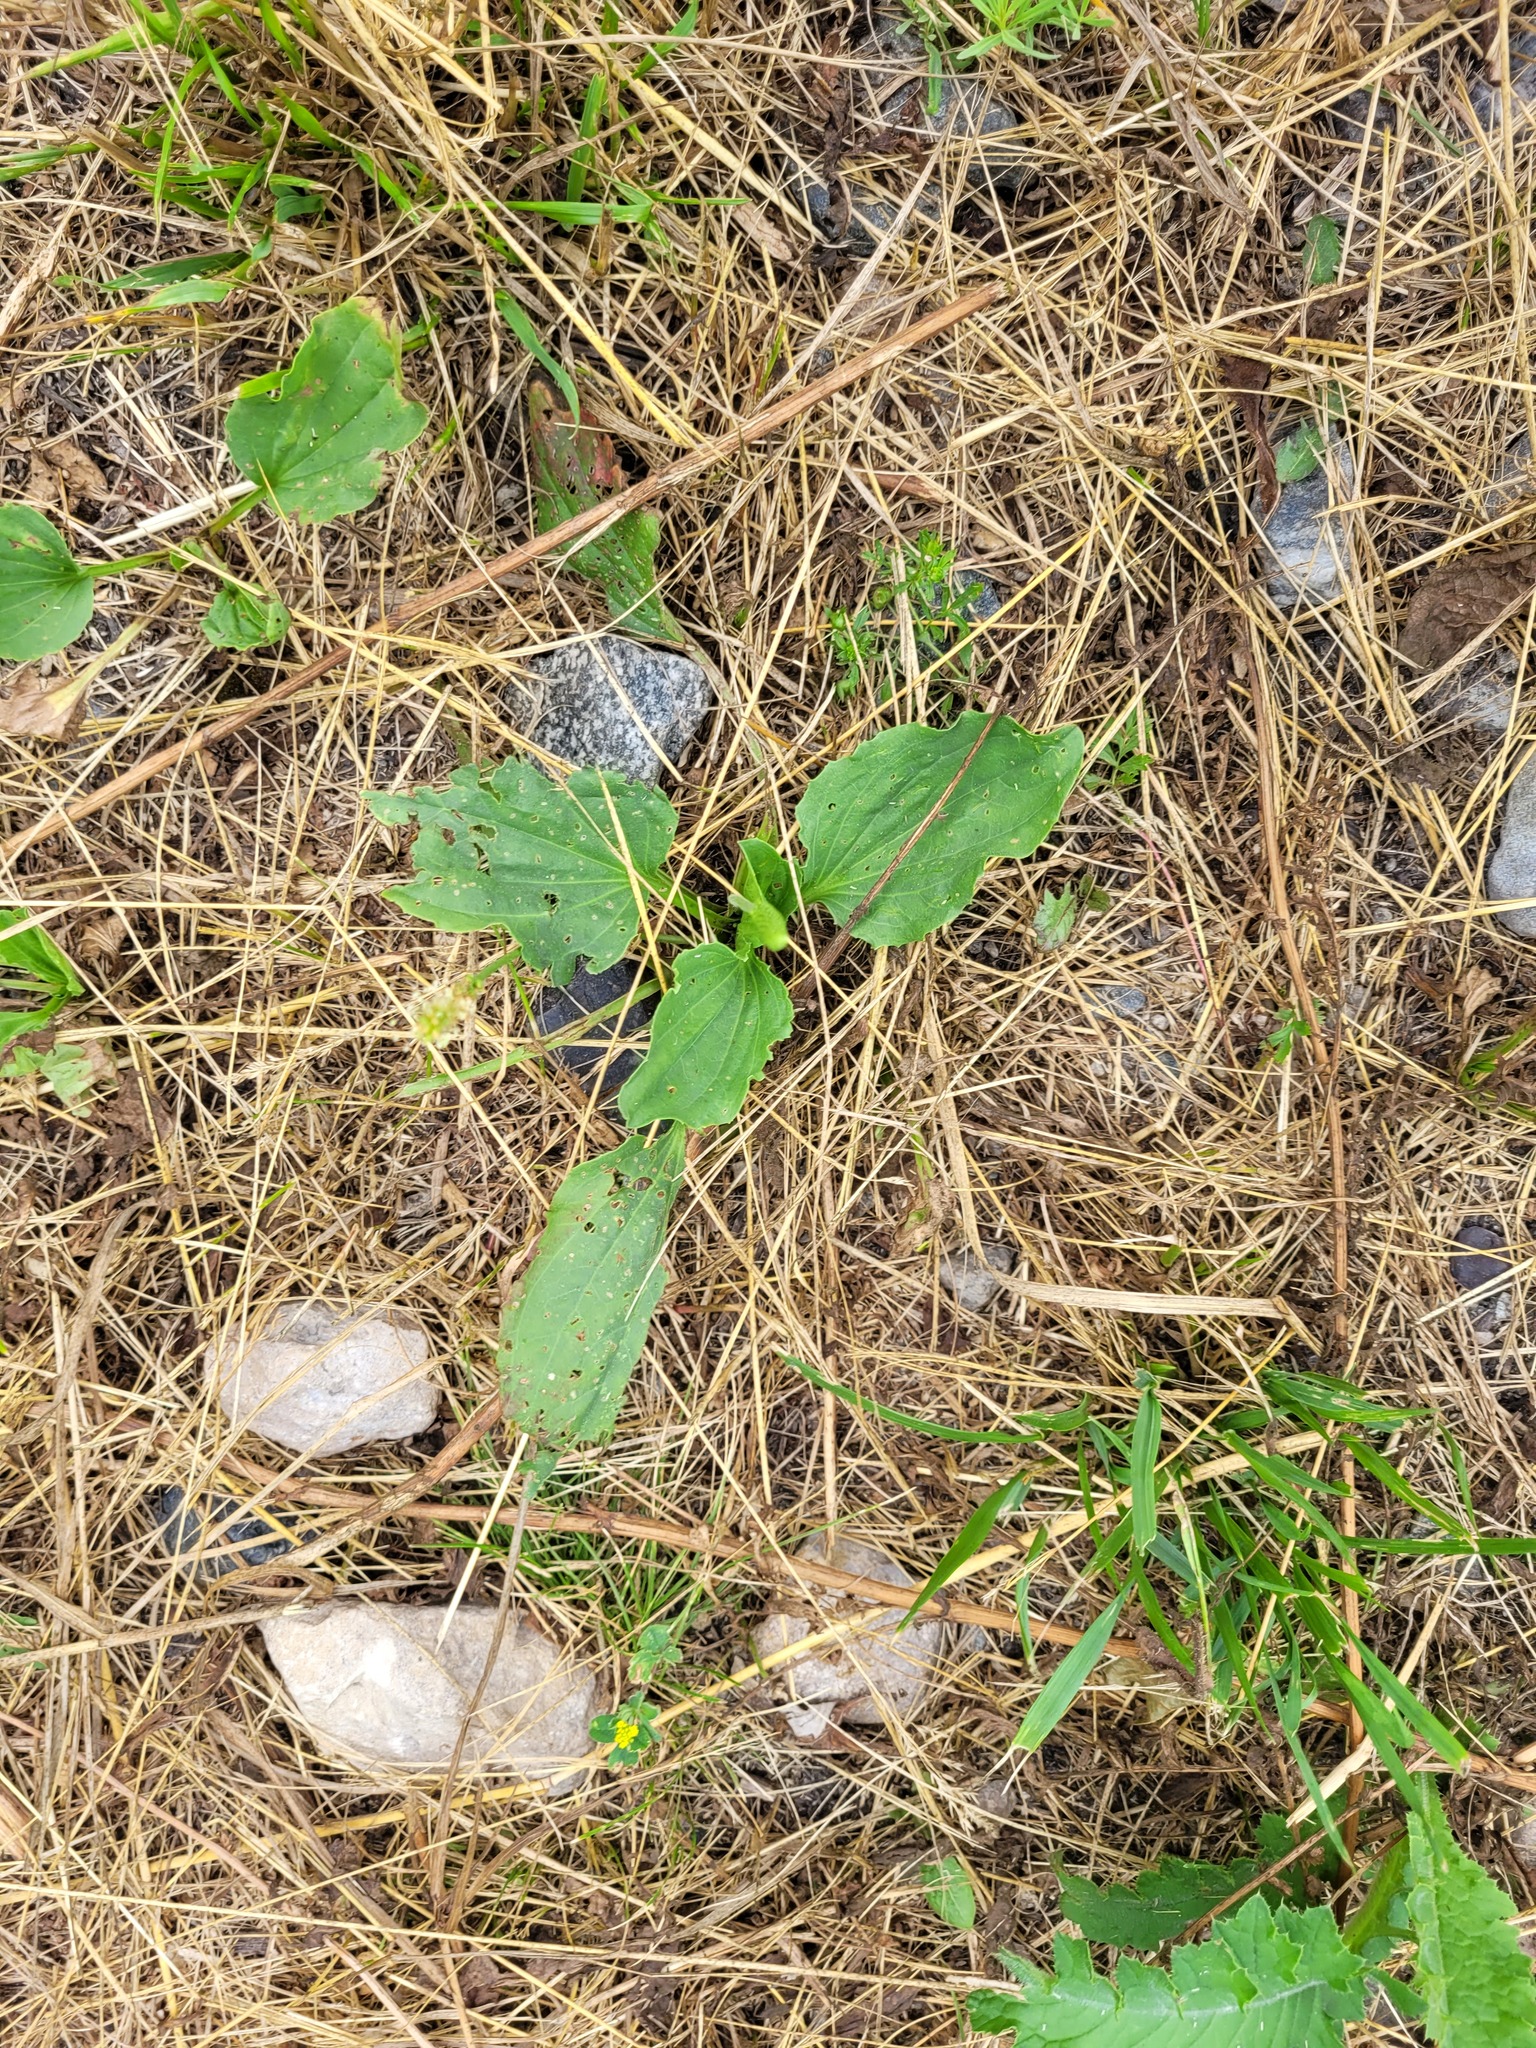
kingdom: Plantae
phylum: Tracheophyta
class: Magnoliopsida
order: Lamiales
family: Plantaginaceae
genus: Plantago
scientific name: Plantago major
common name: Common plantain
